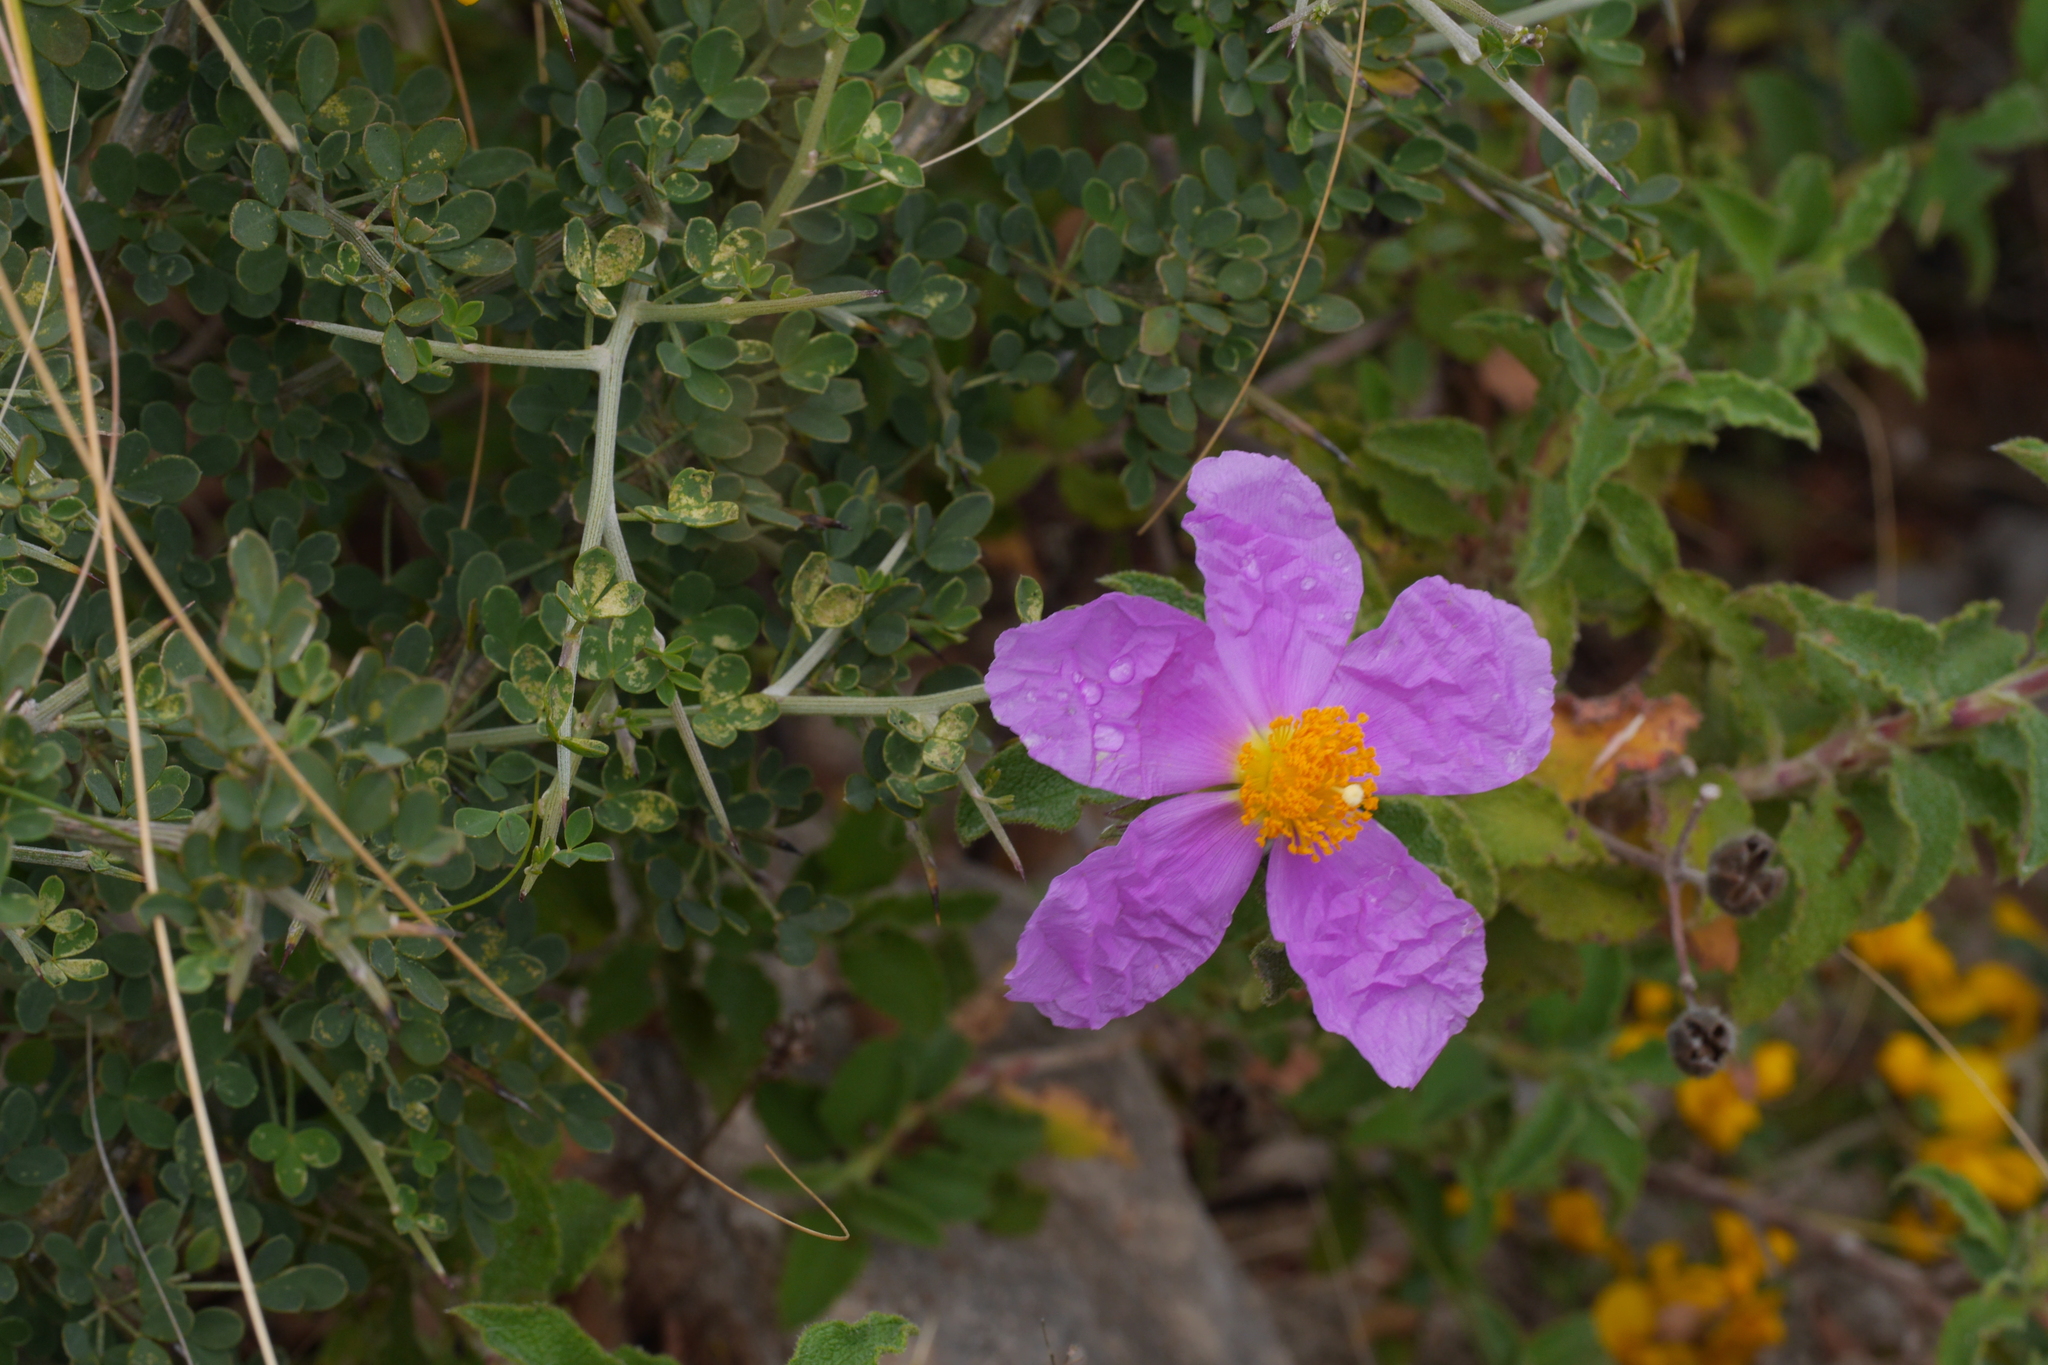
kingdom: Plantae
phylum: Tracheophyta
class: Magnoliopsida
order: Malvales
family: Cistaceae
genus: Cistus
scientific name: Cistus creticus
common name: Cretan rockrose
